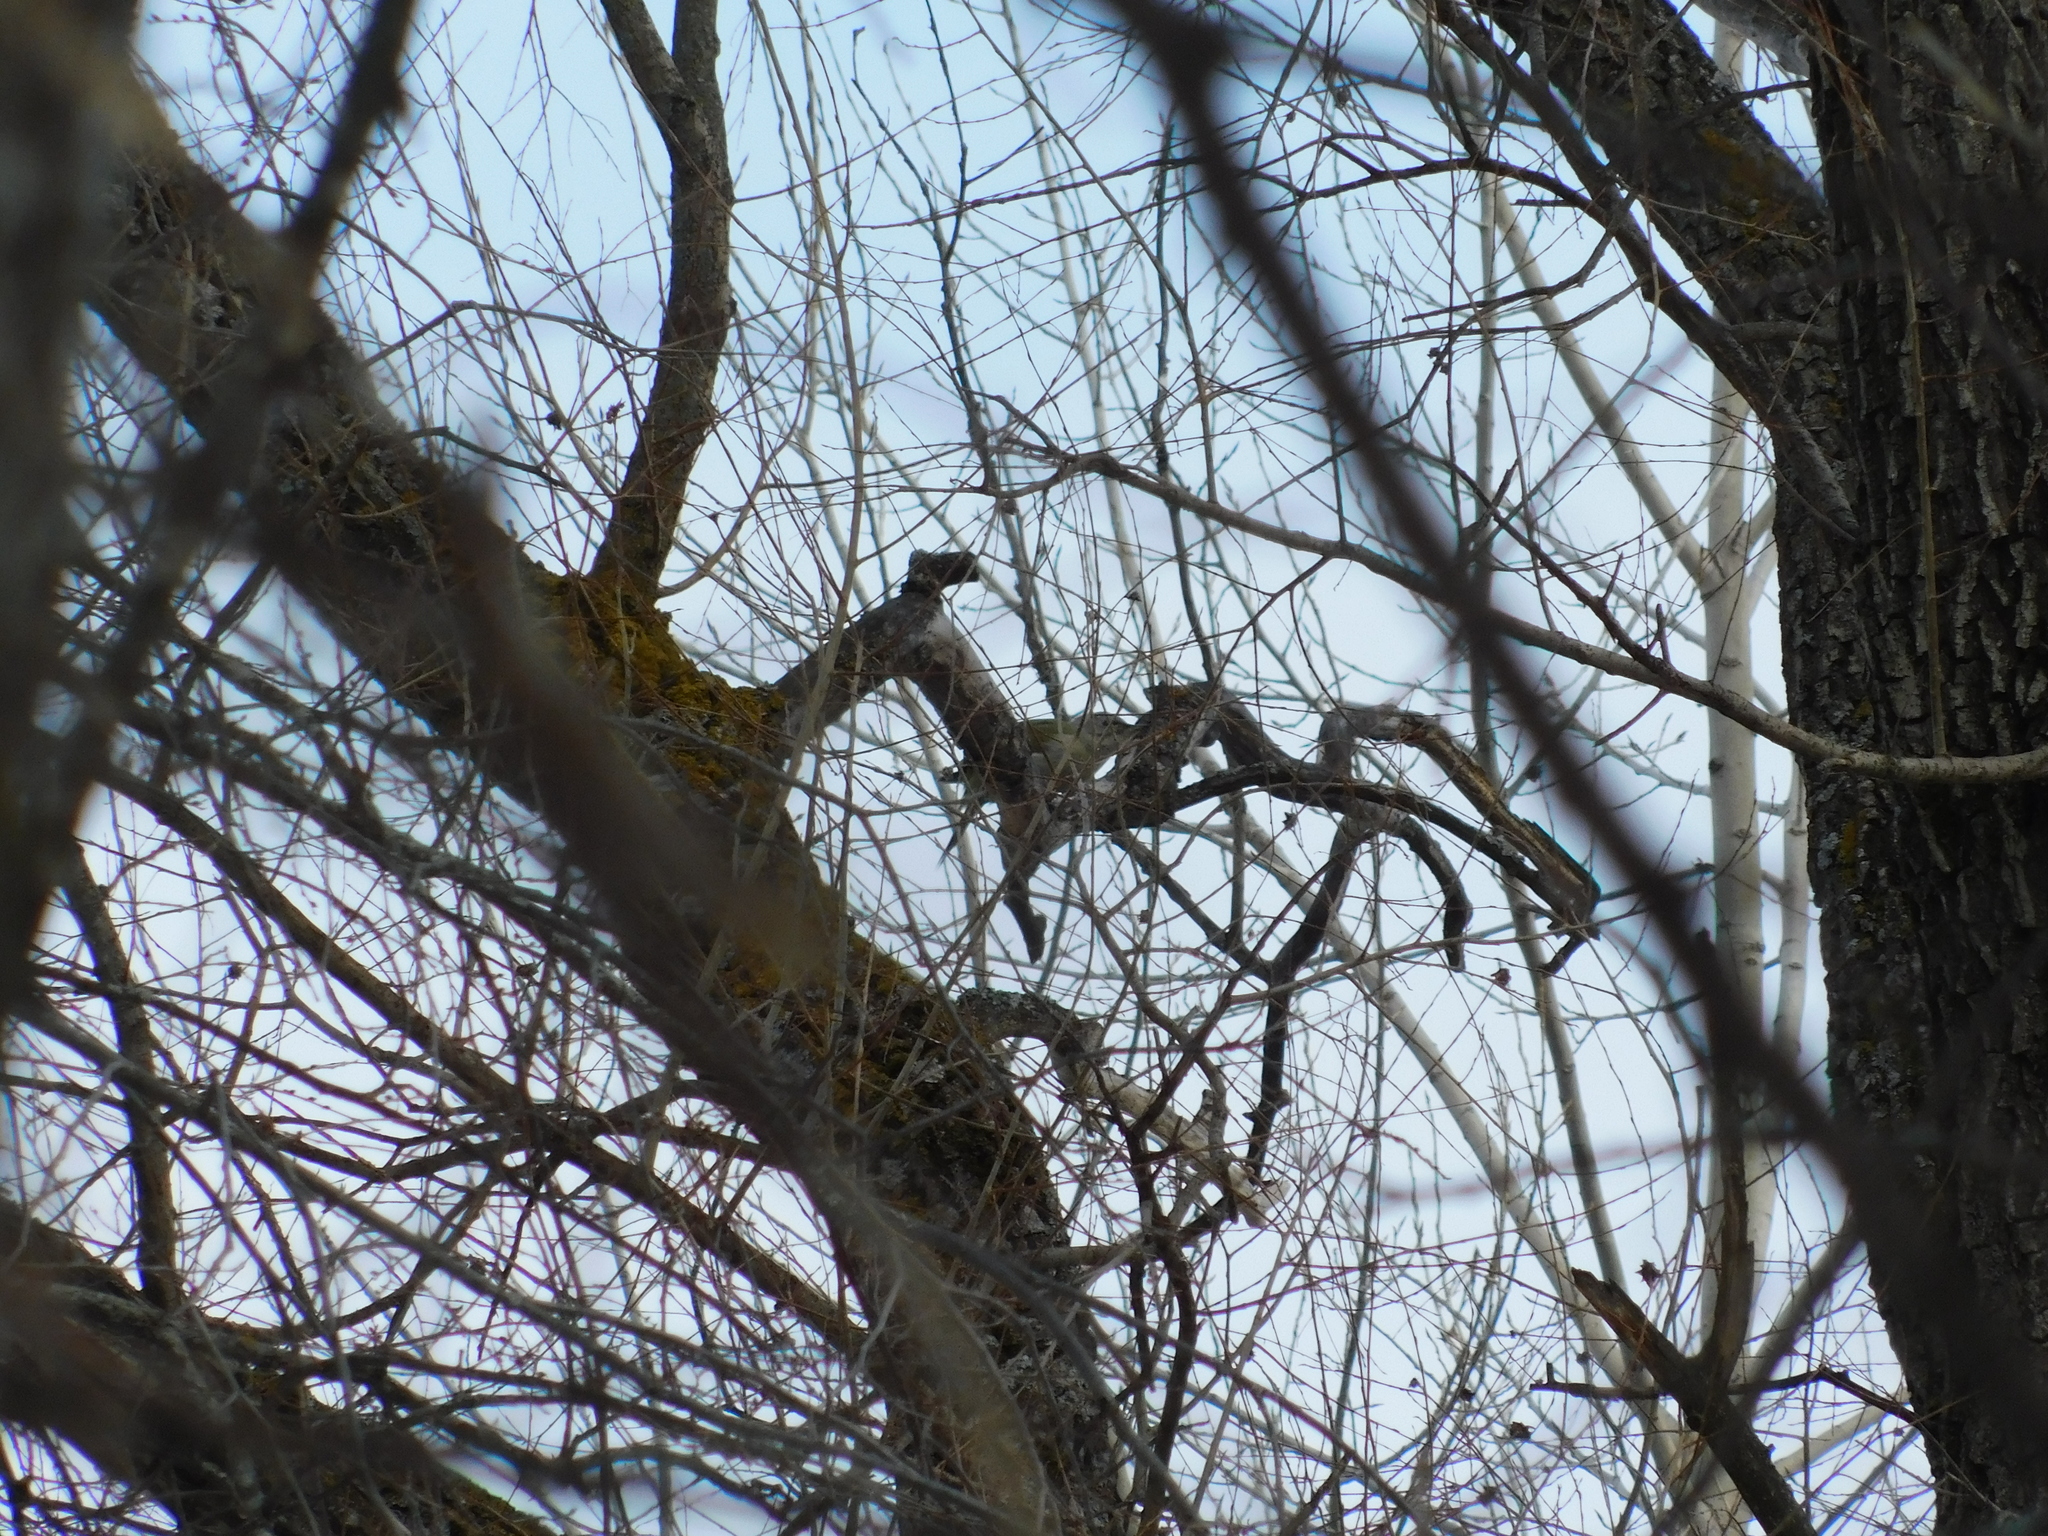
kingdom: Animalia
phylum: Chordata
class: Aves
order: Piciformes
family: Picidae
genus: Picus
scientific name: Picus canus
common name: Grey-headed woodpecker
